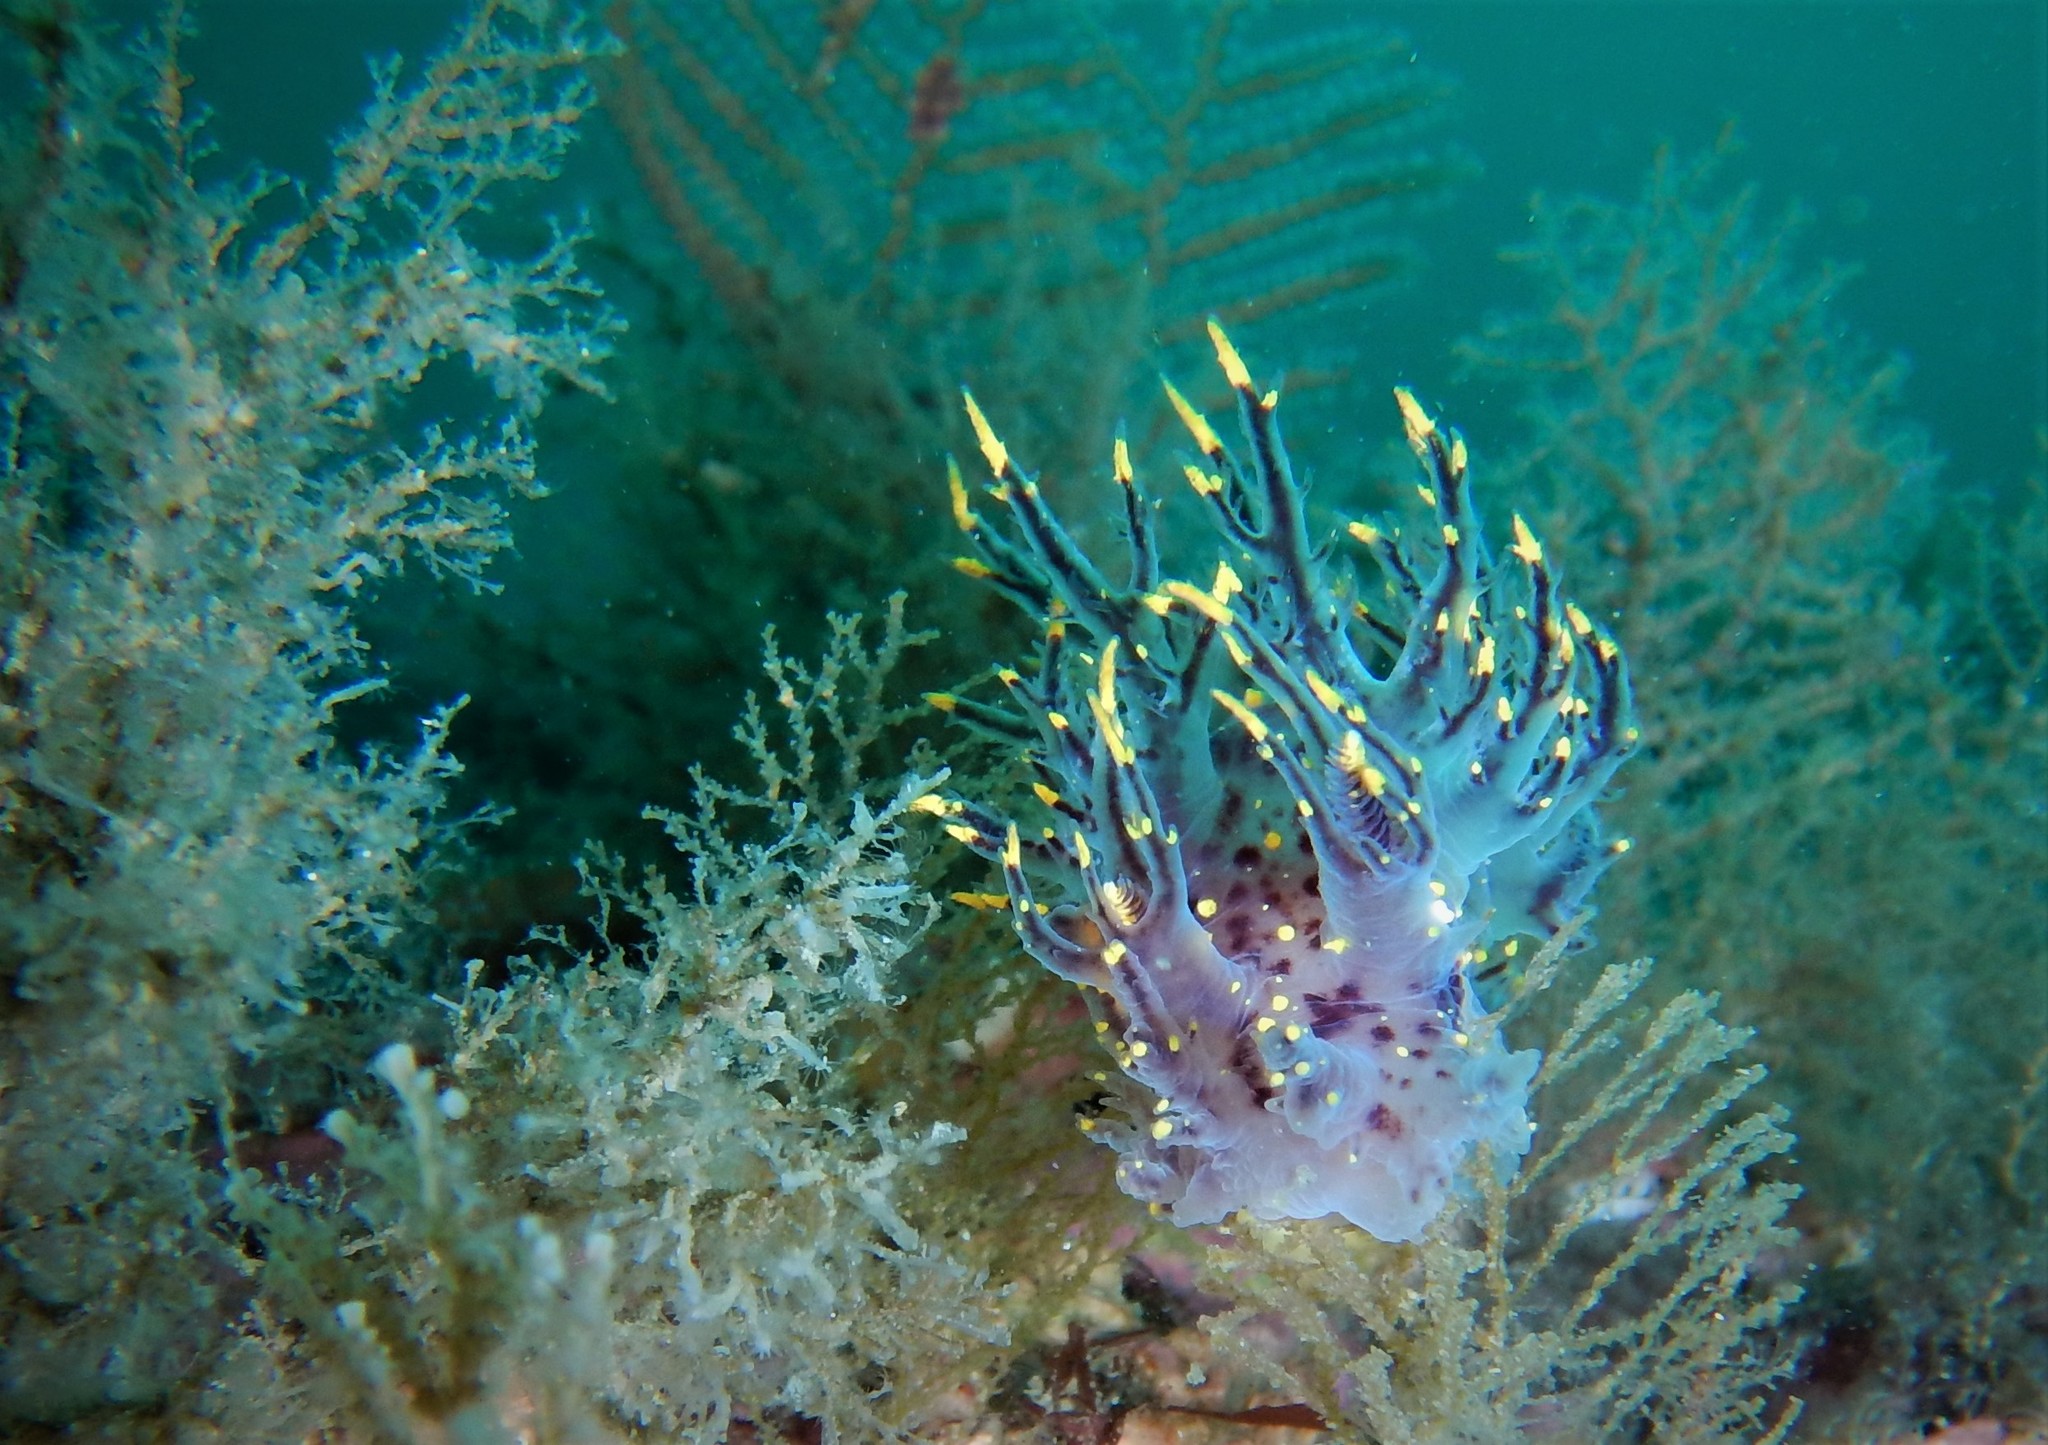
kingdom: Animalia
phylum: Mollusca
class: Gastropoda
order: Nudibranchia
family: Dendronotidae
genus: Dendronotus
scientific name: Dendronotus lacteus
